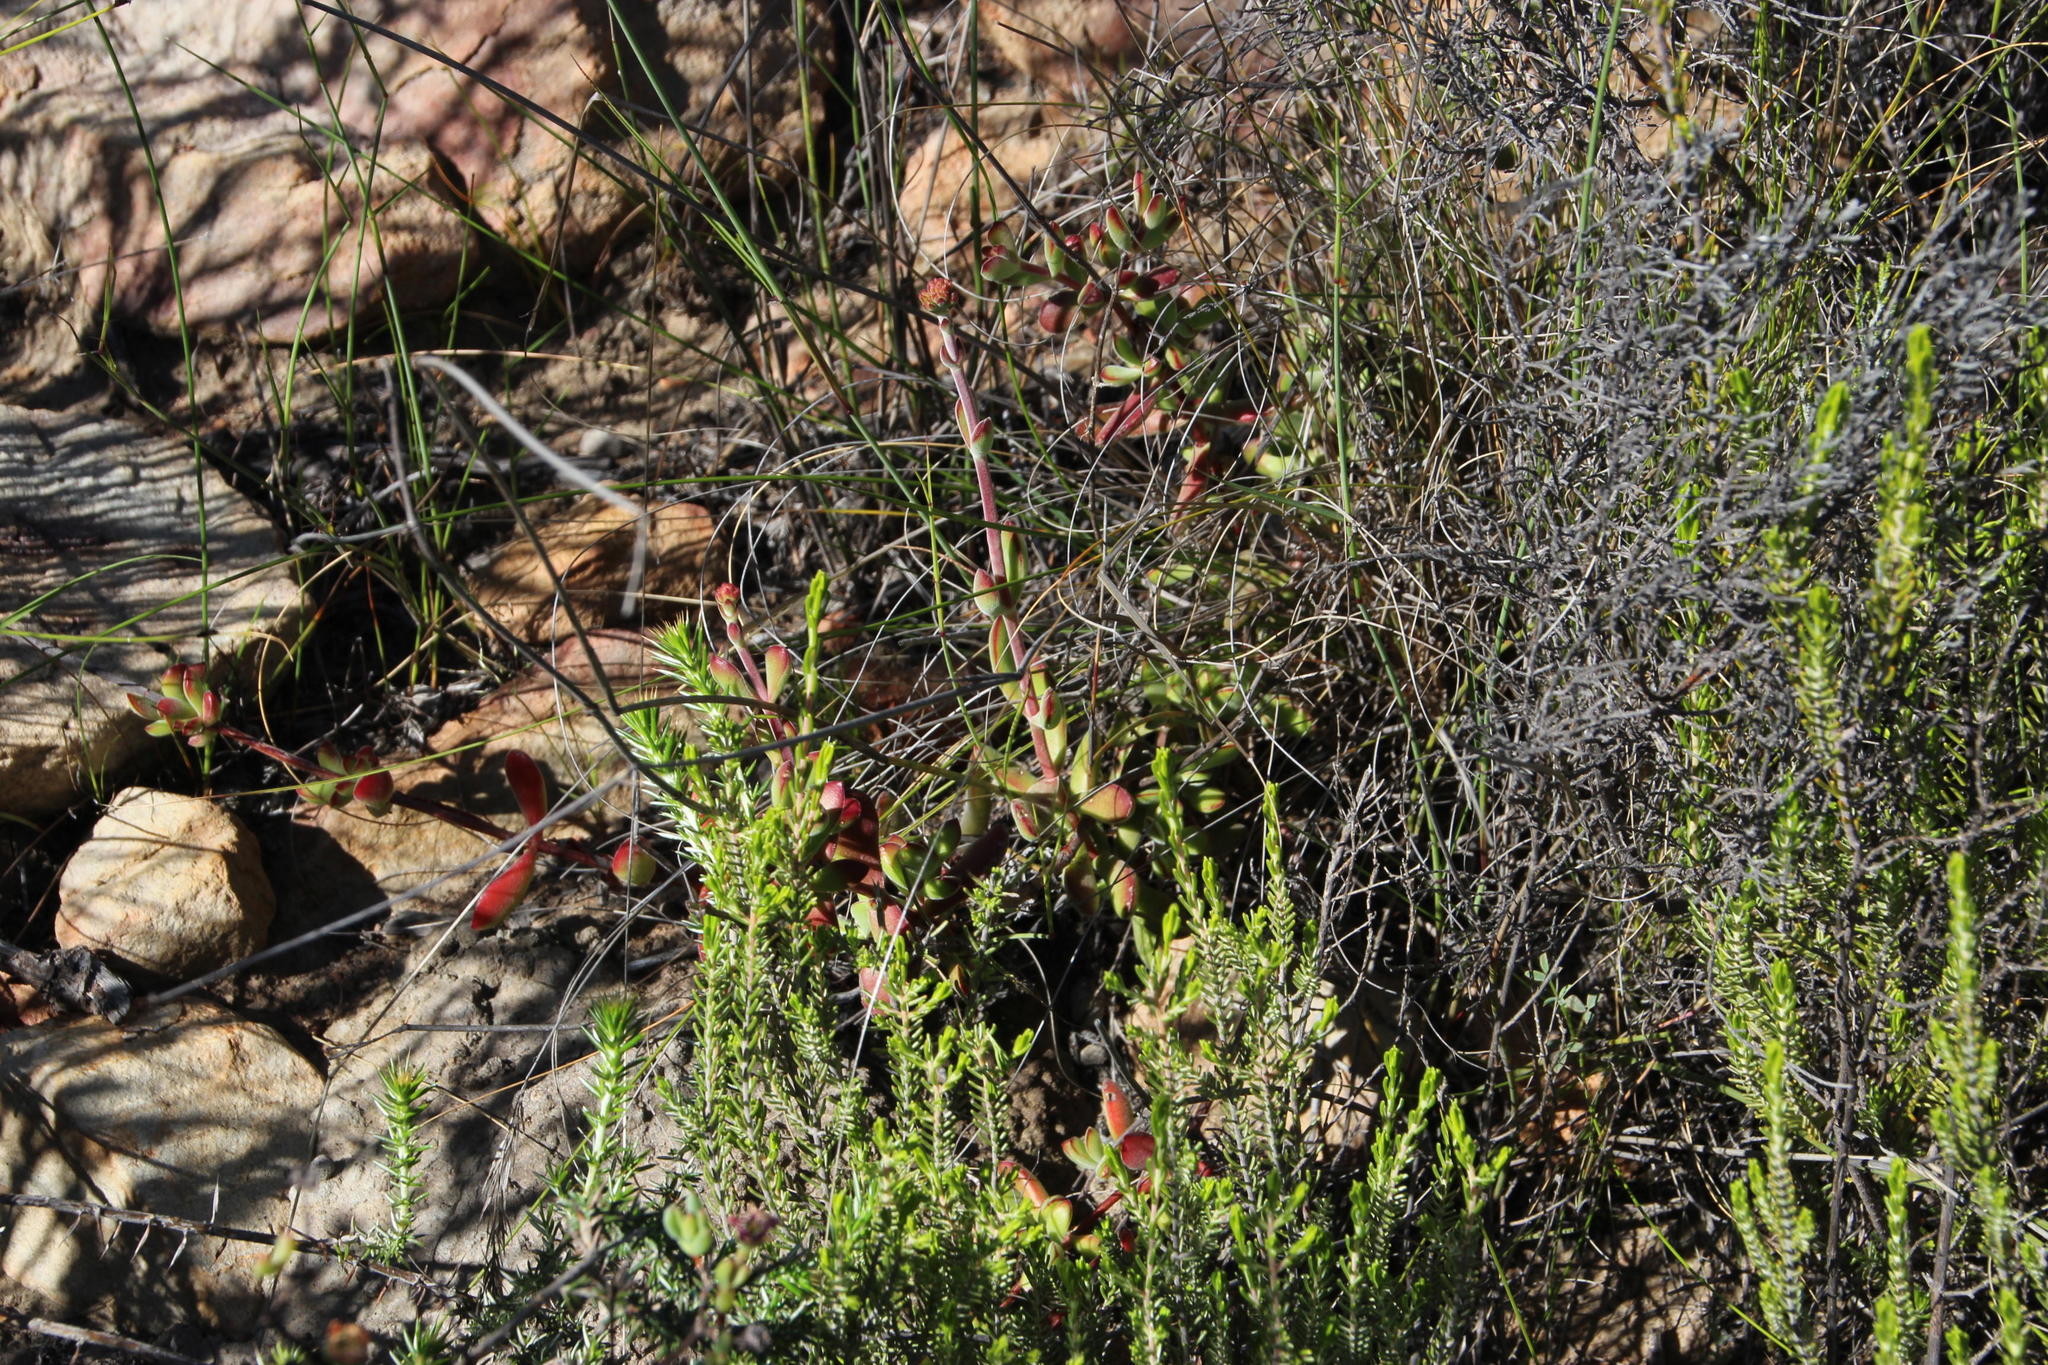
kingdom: Plantae
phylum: Tracheophyta
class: Magnoliopsida
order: Saxifragales
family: Crassulaceae
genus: Crassula
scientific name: Crassula atropurpurea
